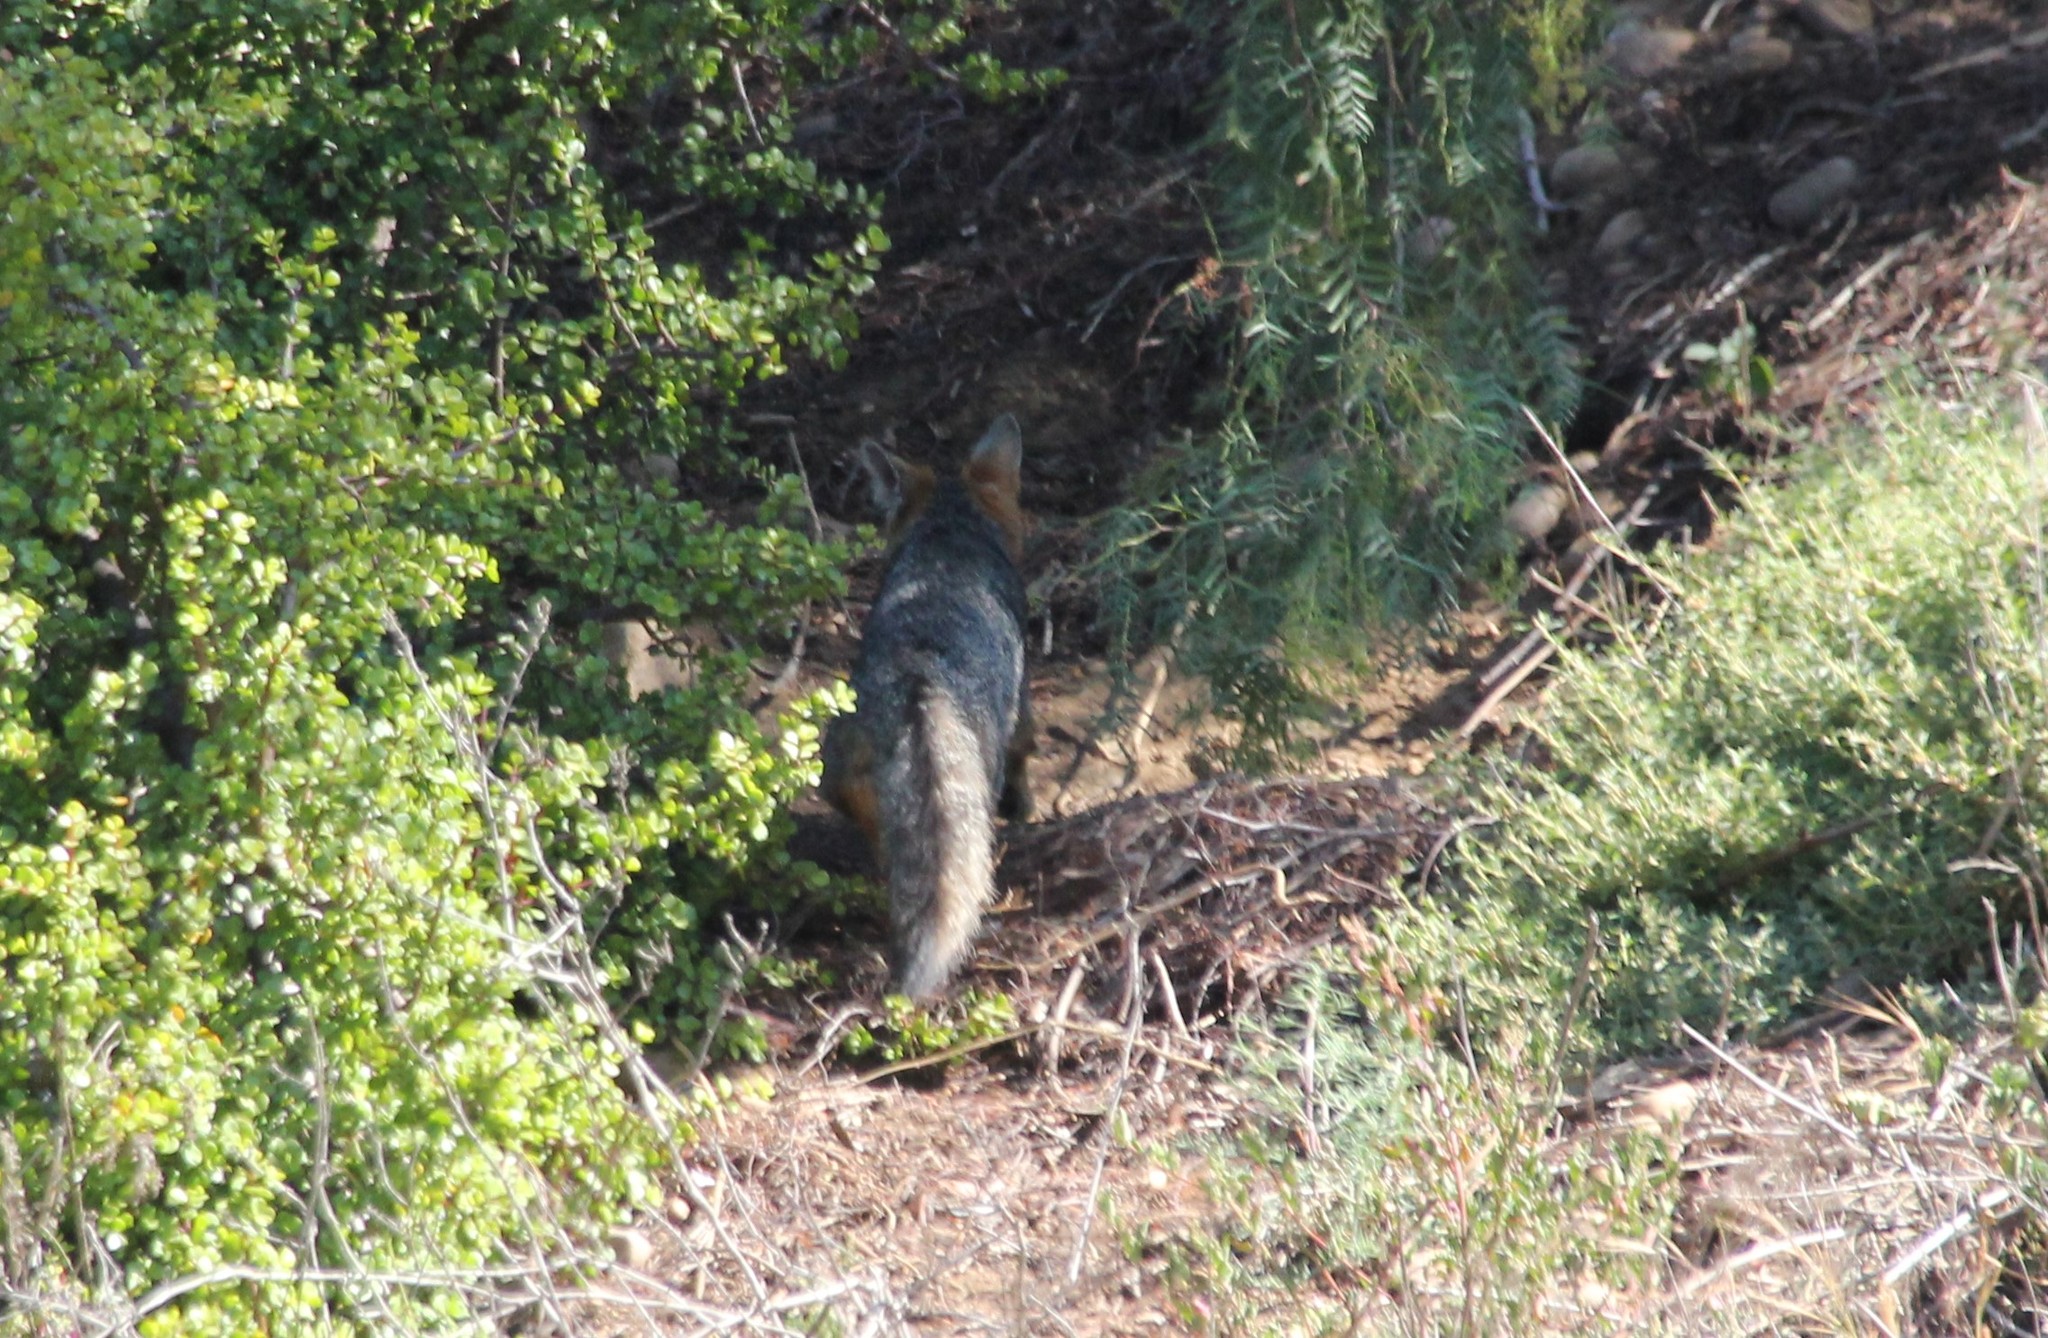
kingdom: Animalia
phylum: Chordata
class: Mammalia
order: Carnivora
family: Canidae
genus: Urocyon
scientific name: Urocyon cinereoargenteus
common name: Gray fox
